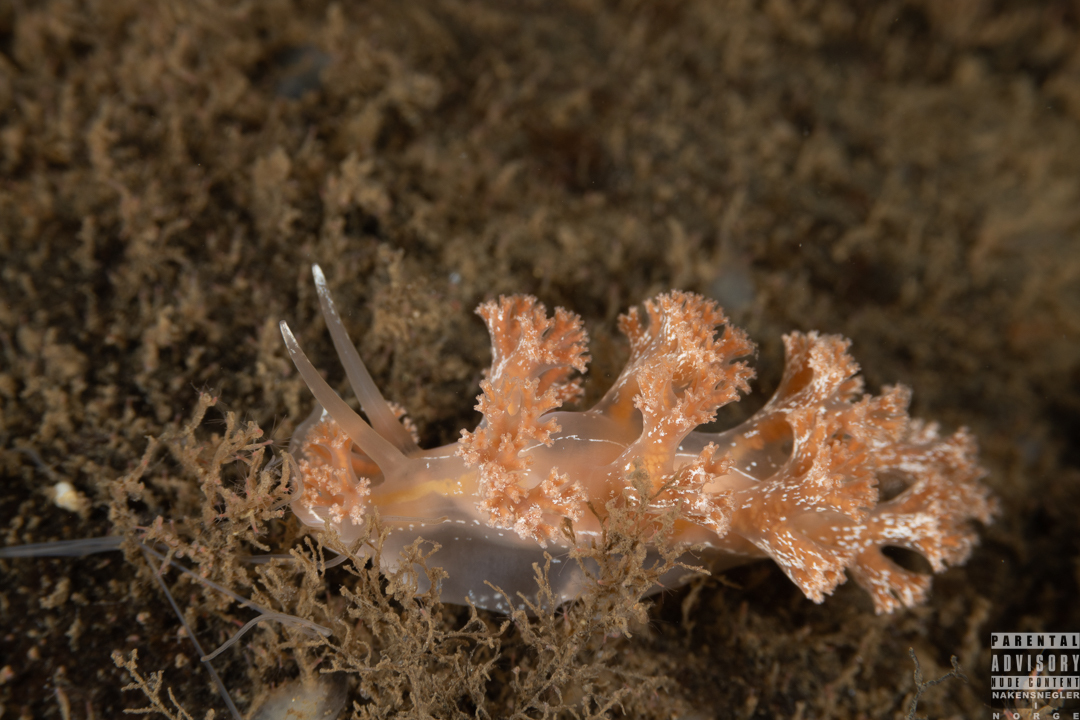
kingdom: Animalia
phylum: Mollusca
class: Gastropoda
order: Nudibranchia
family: Heroidae
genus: Hero
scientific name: Hero formosa
